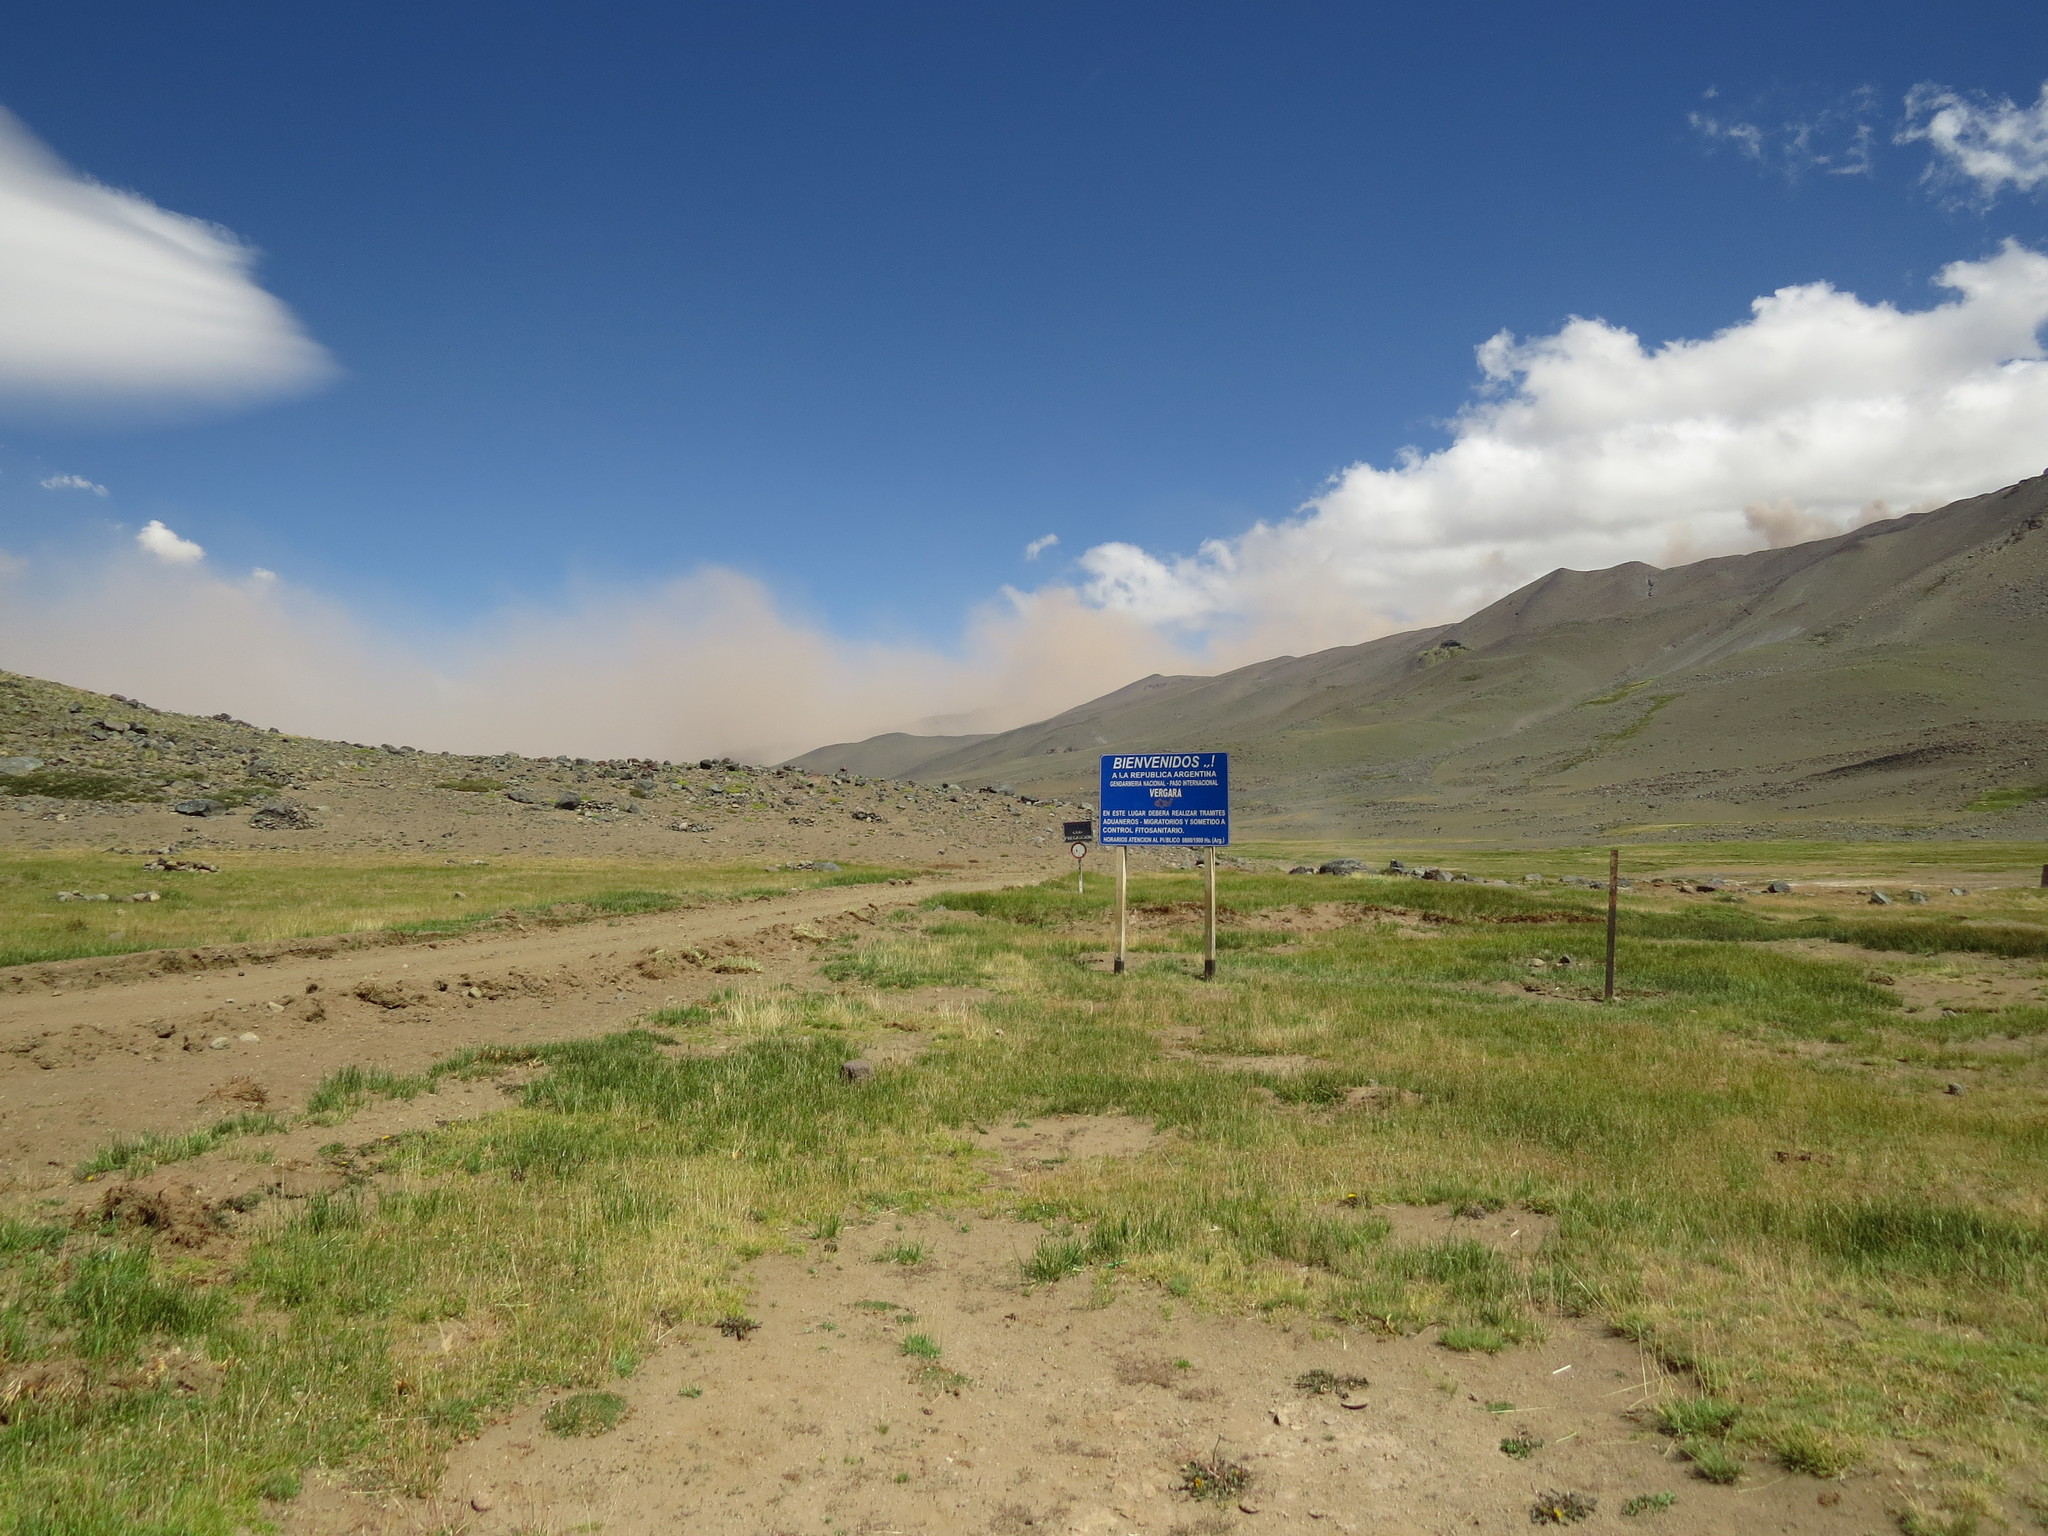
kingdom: Plantae
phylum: Tracheophyta
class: Magnoliopsida
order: Asterales
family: Asteraceae
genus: Leucheria
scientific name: Leucheria candidissima
